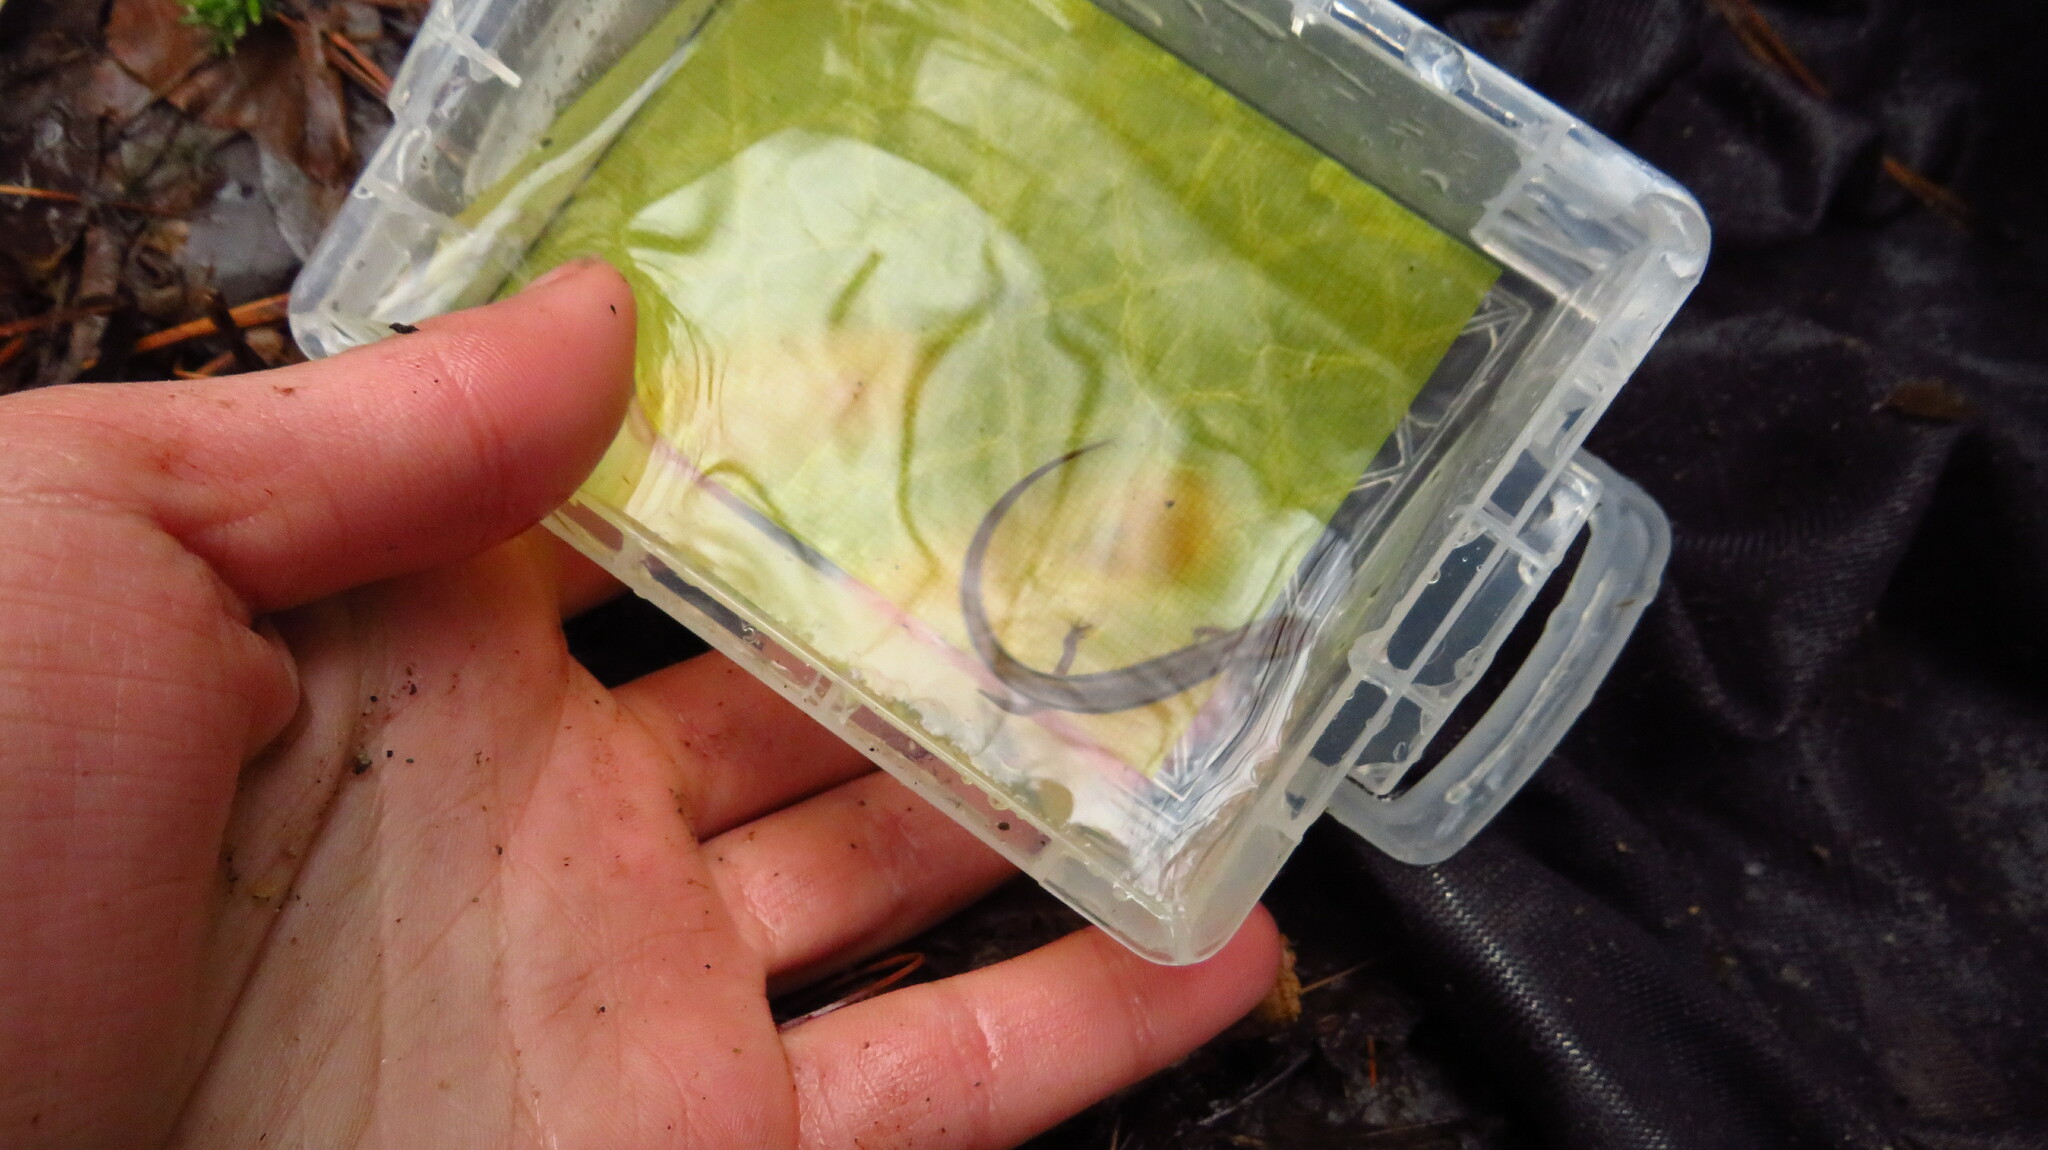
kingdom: Animalia
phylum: Chordata
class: Amphibia
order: Caudata
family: Plethodontidae
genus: Eurycea
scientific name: Eurycea bislineata
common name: Northern two-lined salamander
